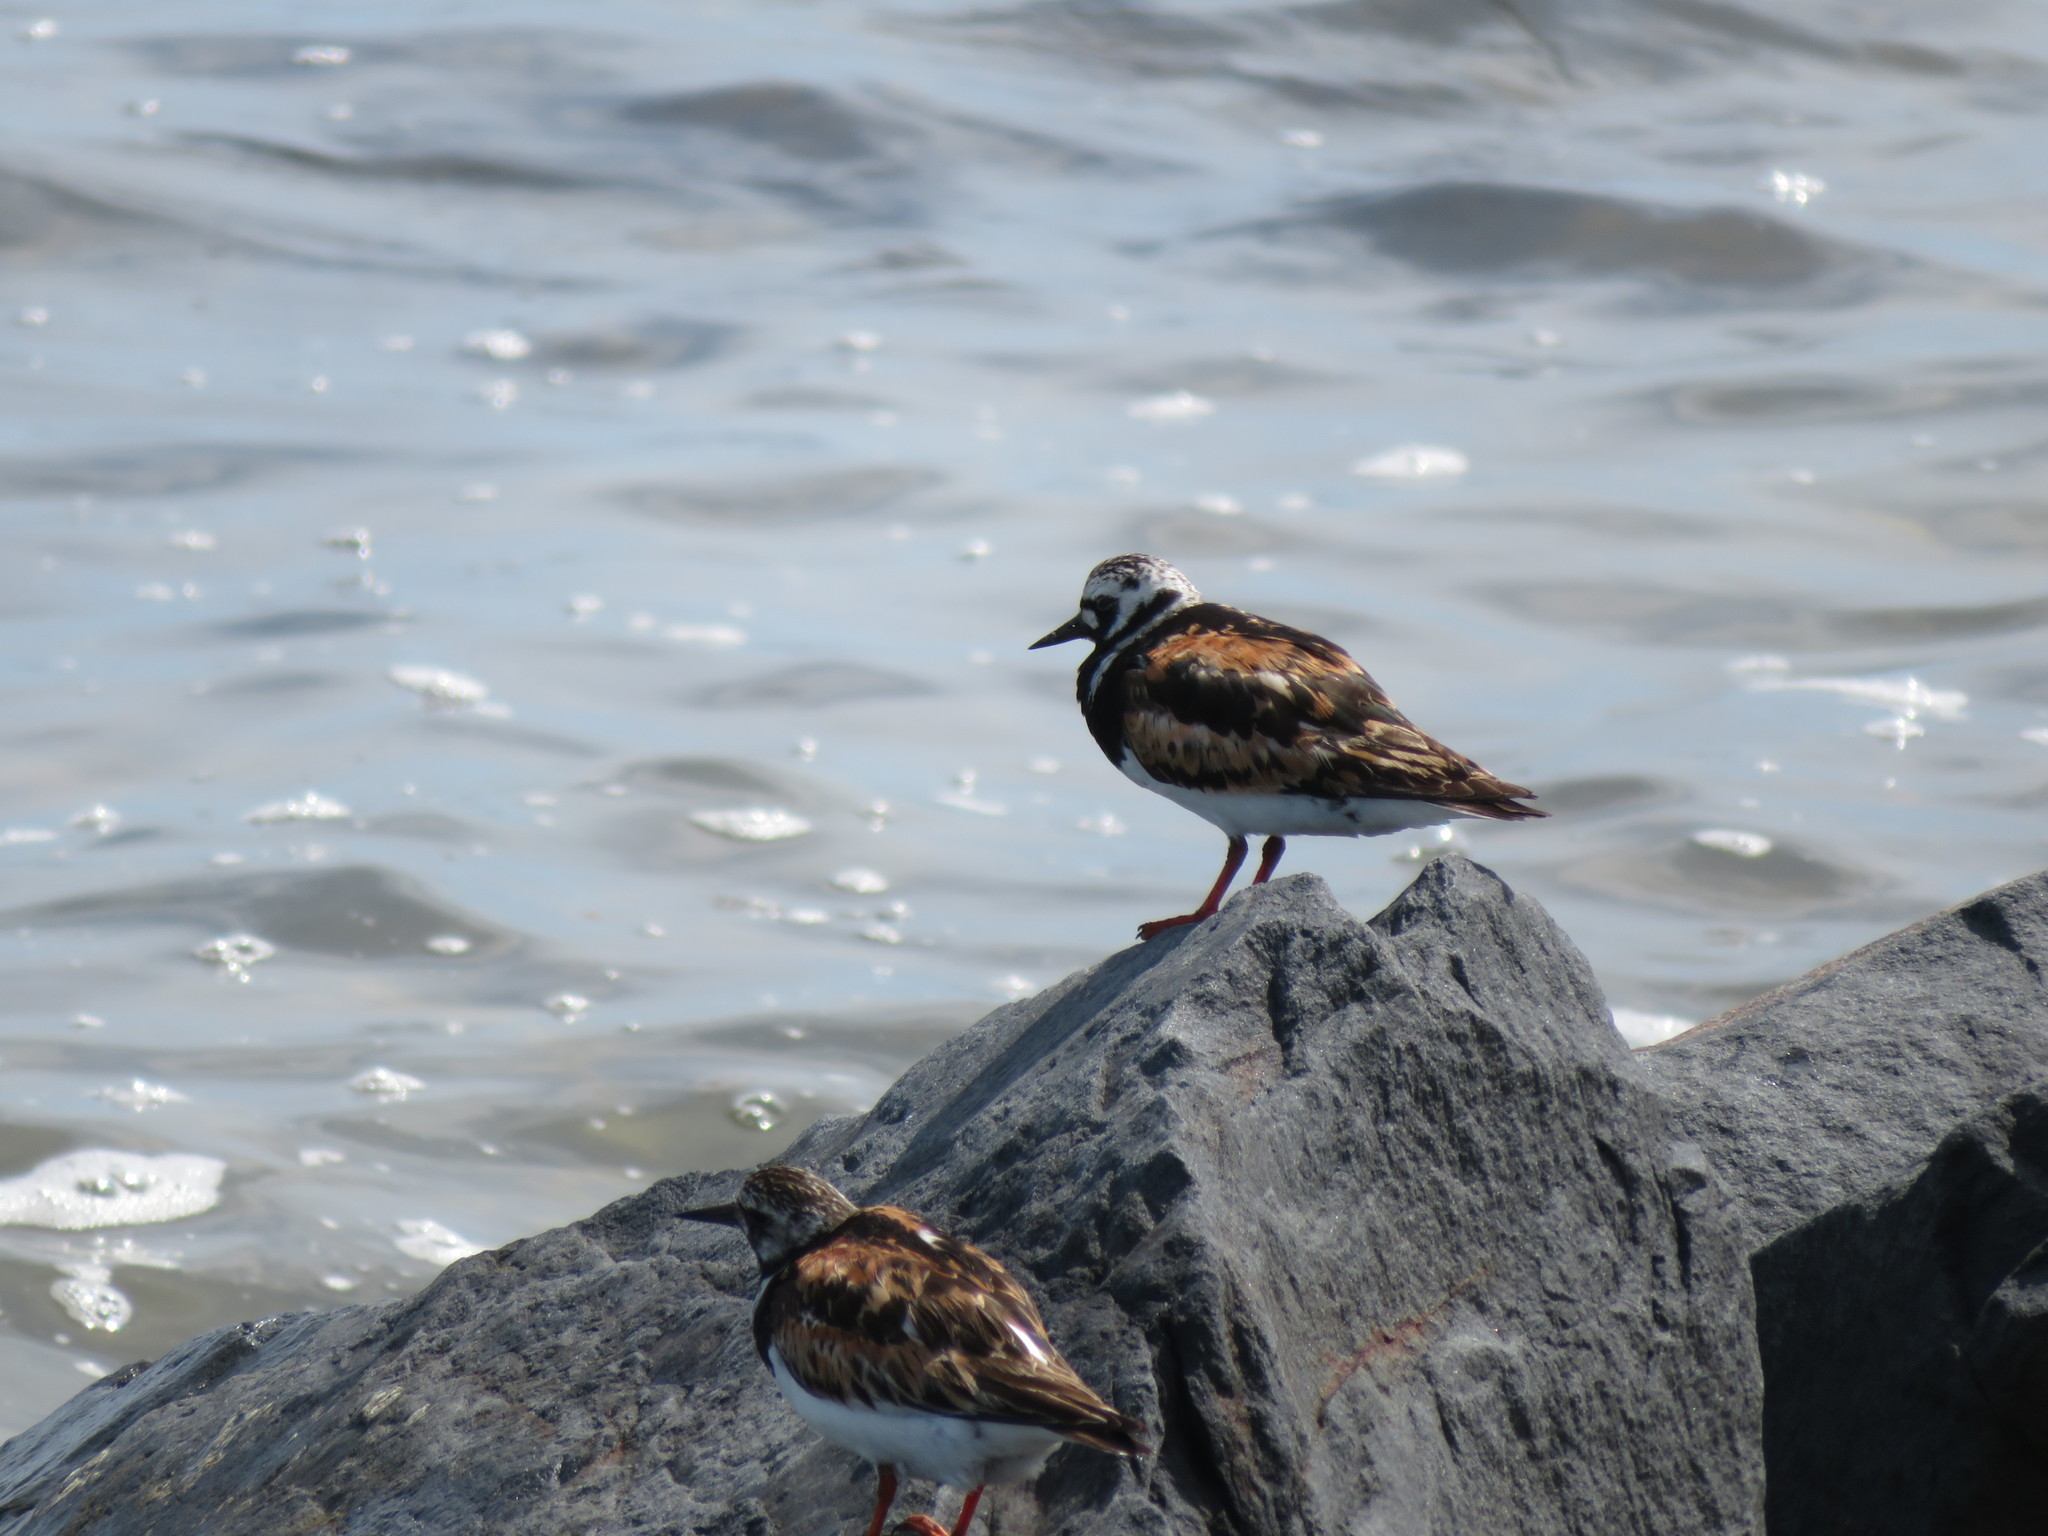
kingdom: Animalia
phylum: Chordata
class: Aves
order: Charadriiformes
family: Scolopacidae
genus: Arenaria
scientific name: Arenaria interpres
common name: Ruddy turnstone
